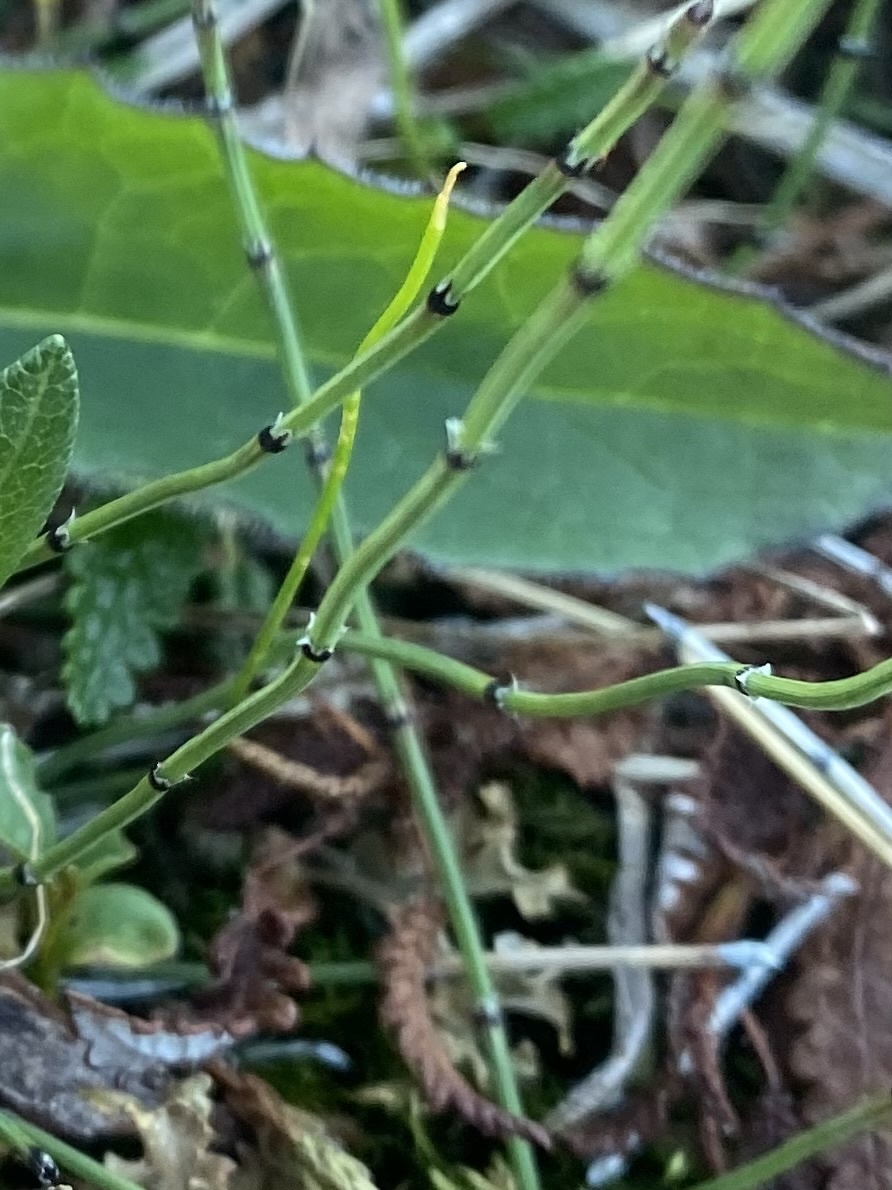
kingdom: Plantae
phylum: Tracheophyta
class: Polypodiopsida
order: Equisetales
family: Equisetaceae
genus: Equisetum
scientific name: Equisetum variegatum
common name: Variegated horsetail
